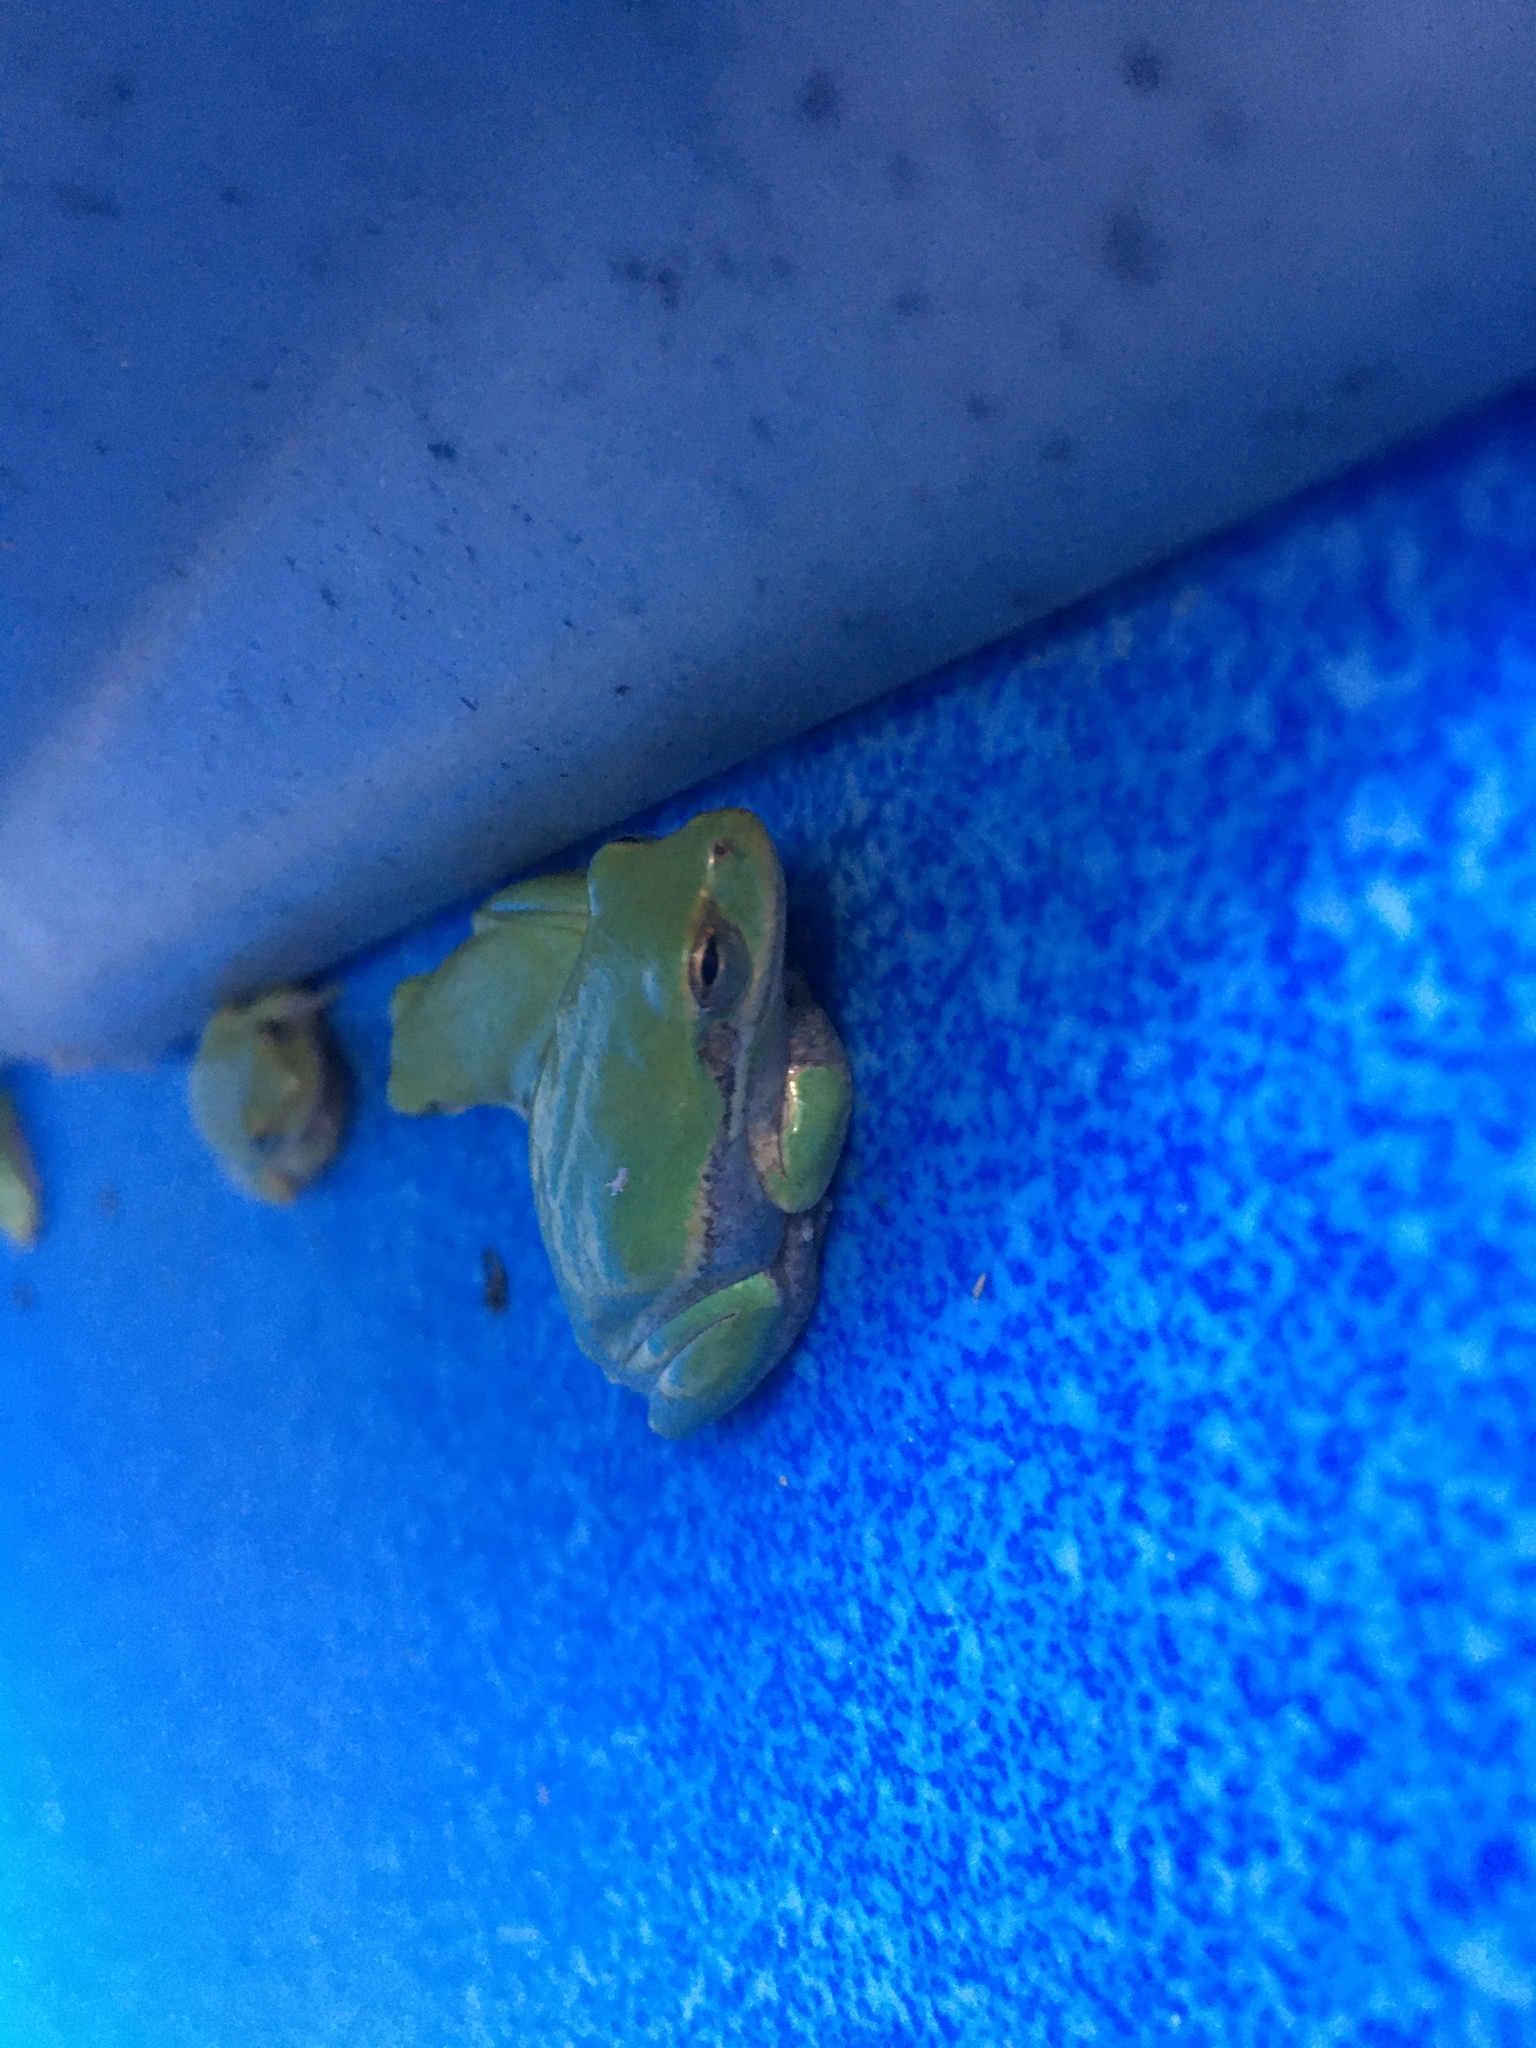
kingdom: Animalia
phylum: Chordata
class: Amphibia
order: Anura
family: Hylidae
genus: Dryophytes
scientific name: Dryophytes squirellus
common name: Squirrel treefrog
